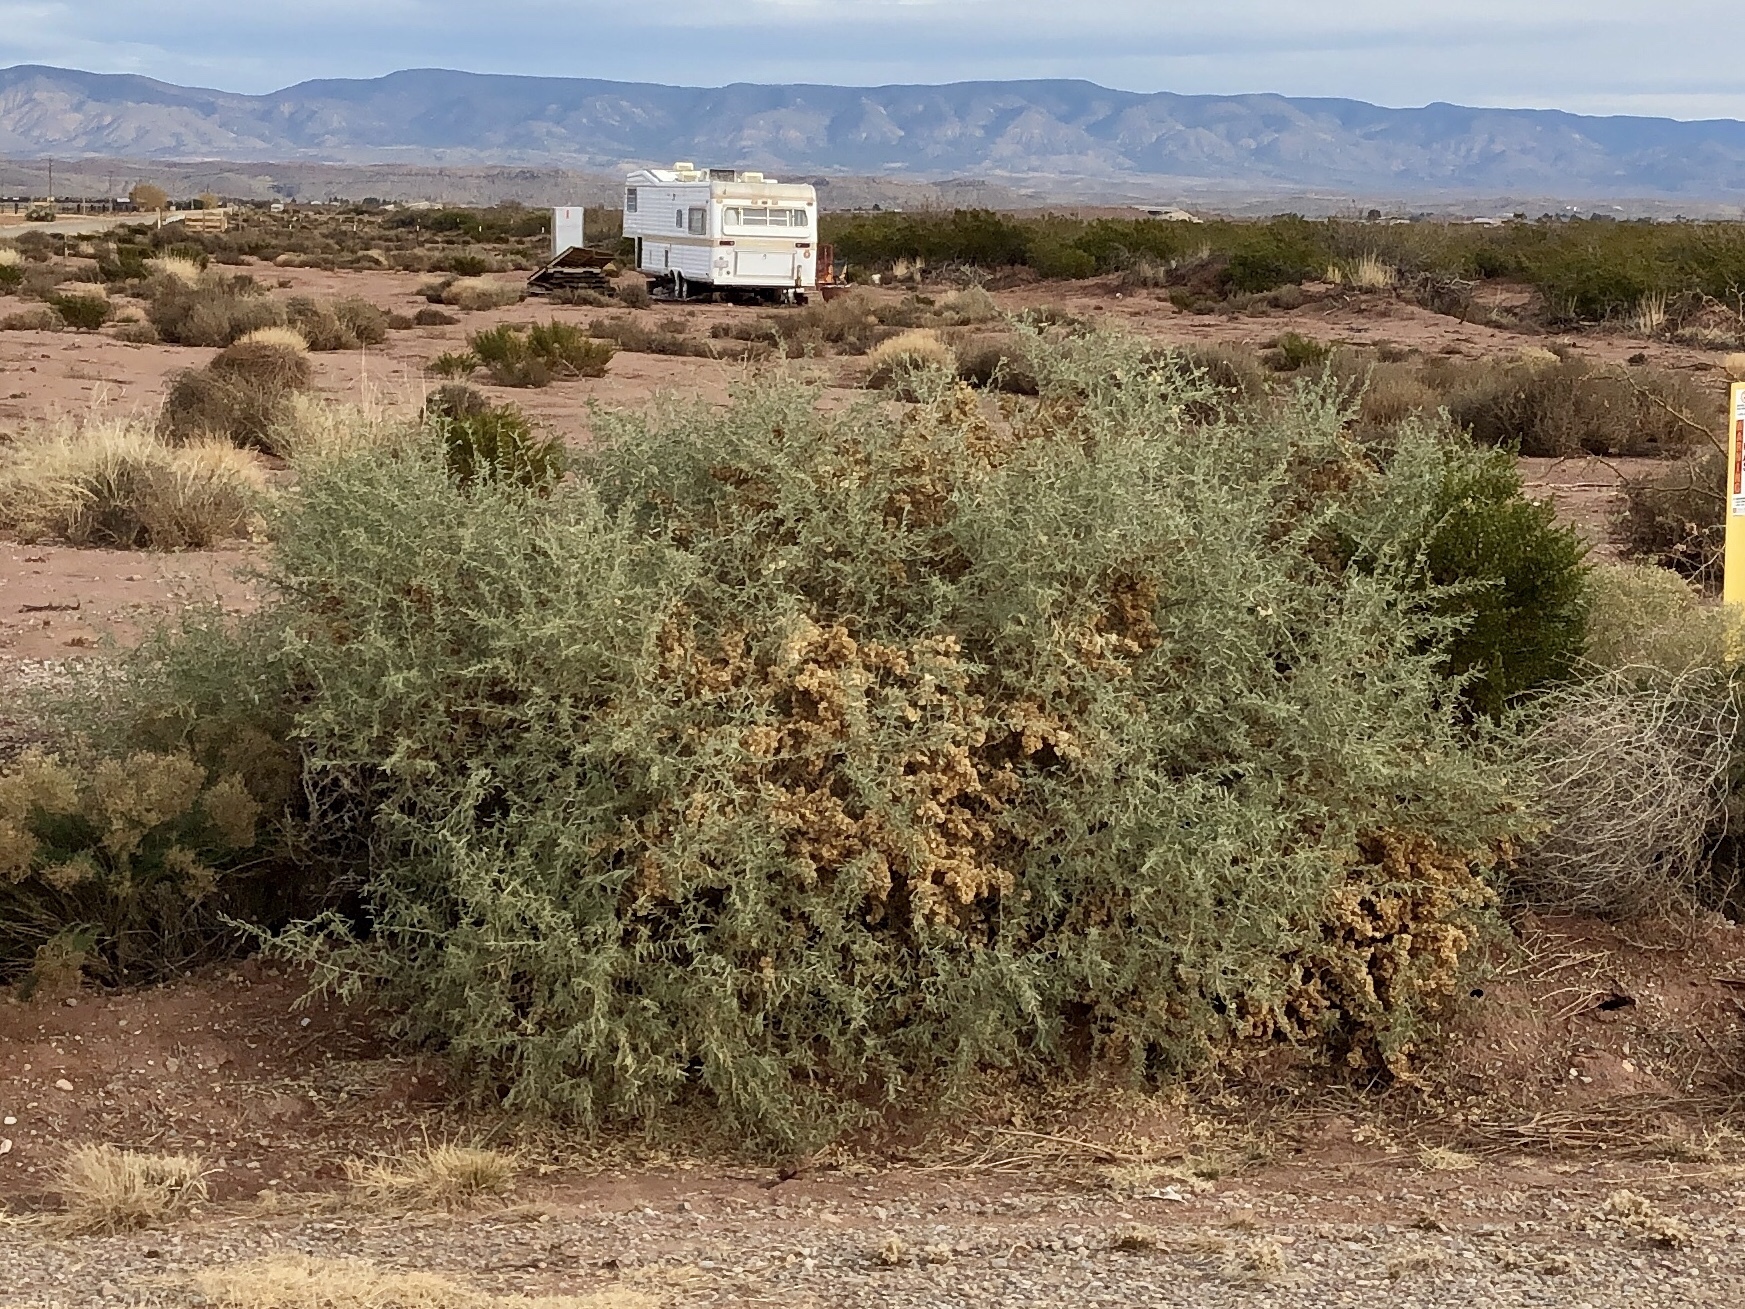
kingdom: Plantae
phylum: Tracheophyta
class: Magnoliopsida
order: Caryophyllales
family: Amaranthaceae
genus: Atriplex
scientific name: Atriplex canescens
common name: Four-wing saltbush
